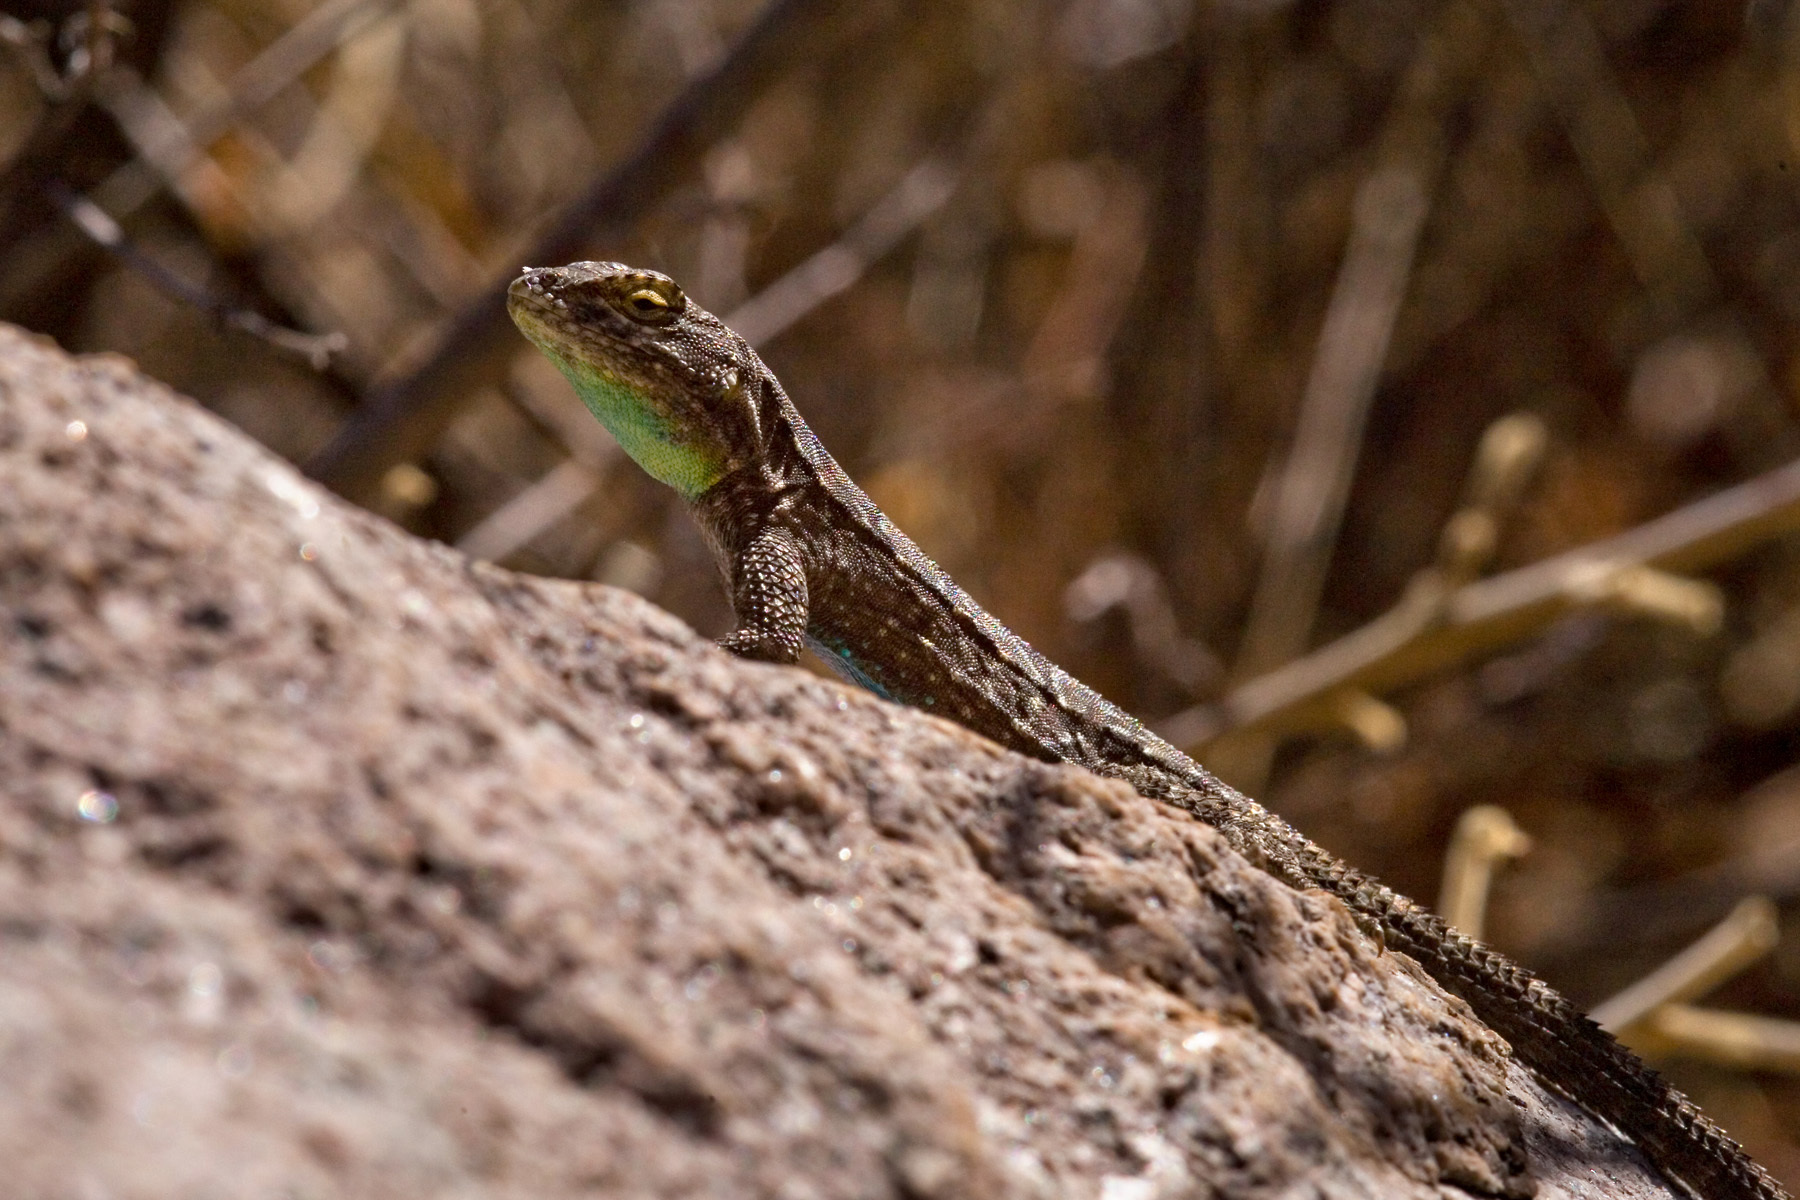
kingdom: Animalia
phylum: Chordata
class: Squamata
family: Phrynosomatidae
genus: Urosaurus
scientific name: Urosaurus ornatus
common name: Ornate tree lizard
